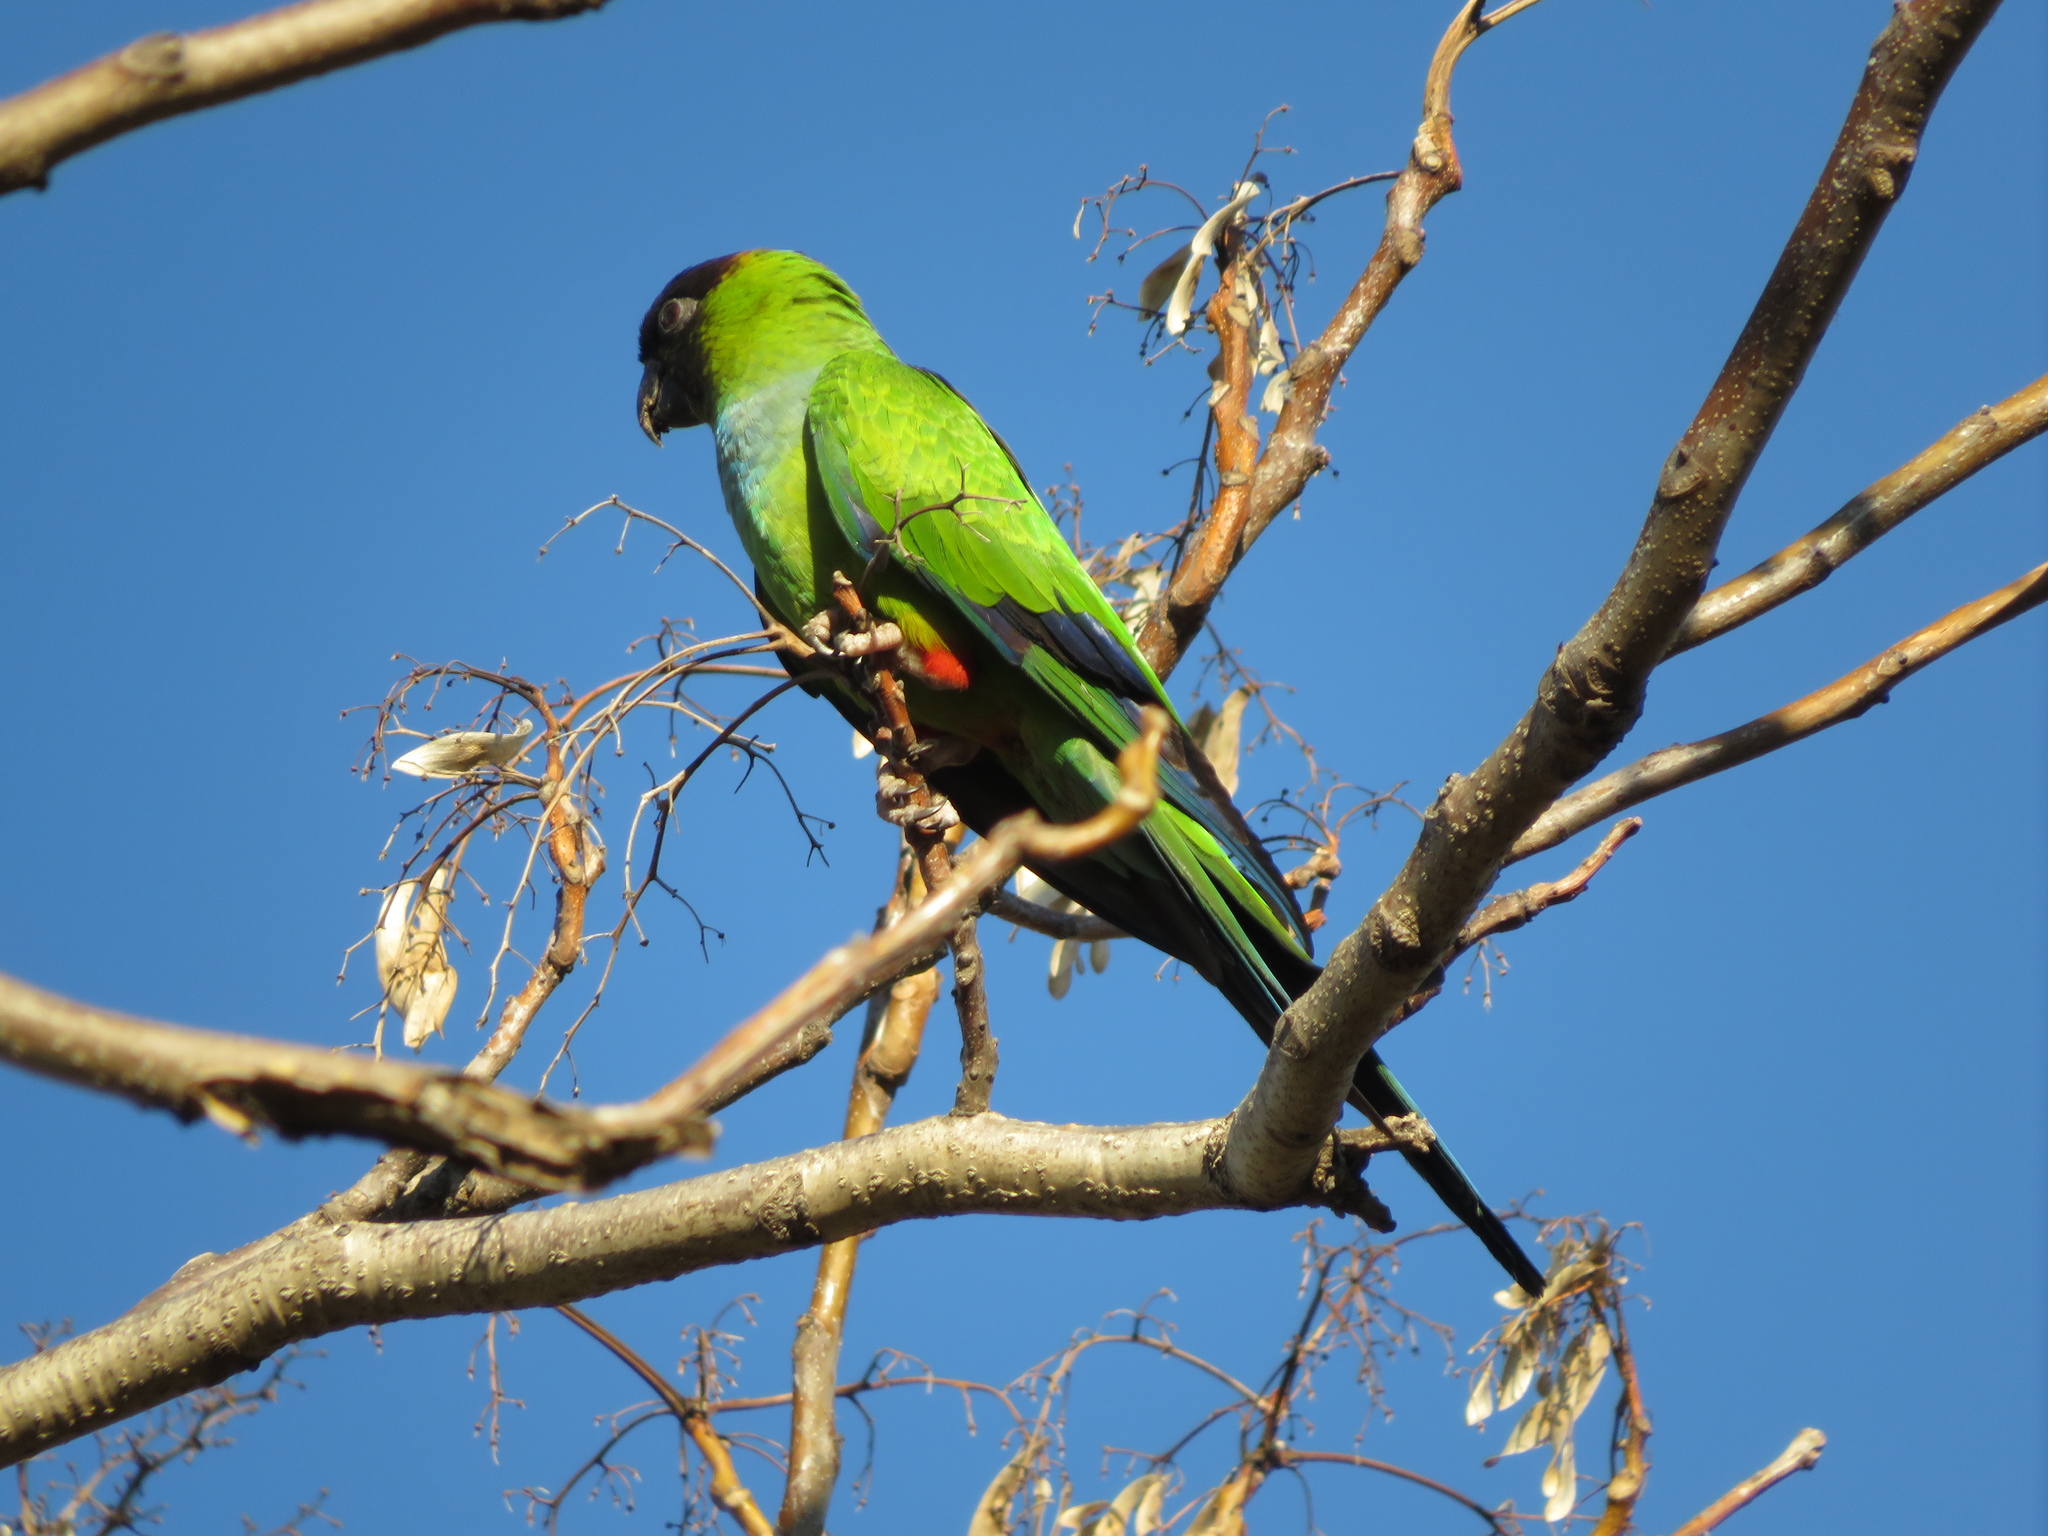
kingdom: Animalia
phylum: Chordata
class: Aves
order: Psittaciformes
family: Psittacidae
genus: Nandayus
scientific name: Nandayus nenday
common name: Nanday parakeet
